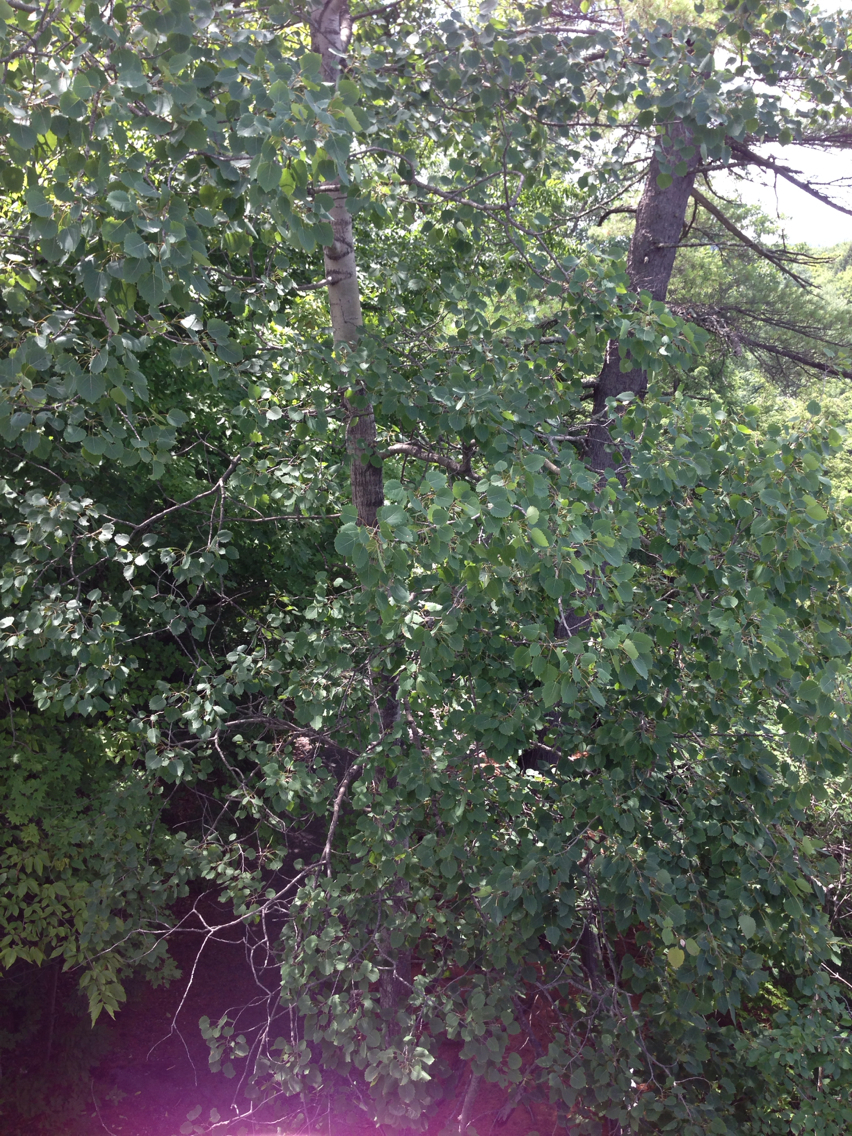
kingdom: Plantae
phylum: Tracheophyta
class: Magnoliopsida
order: Malpighiales
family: Salicaceae
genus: Populus
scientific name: Populus grandidentata
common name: Bigtooth aspen
